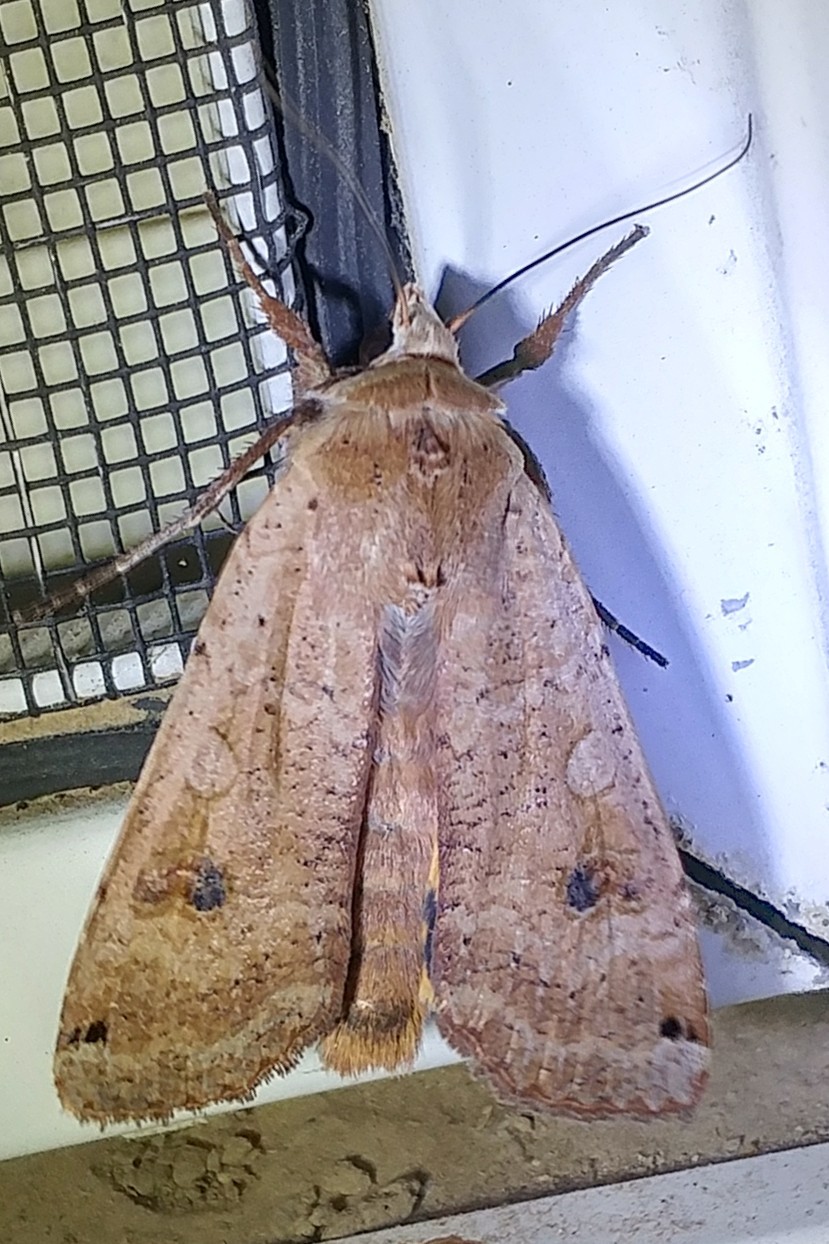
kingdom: Animalia
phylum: Arthropoda
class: Insecta
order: Lepidoptera
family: Noctuidae
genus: Noctua
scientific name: Noctua pronuba
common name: Large yellow underwing
